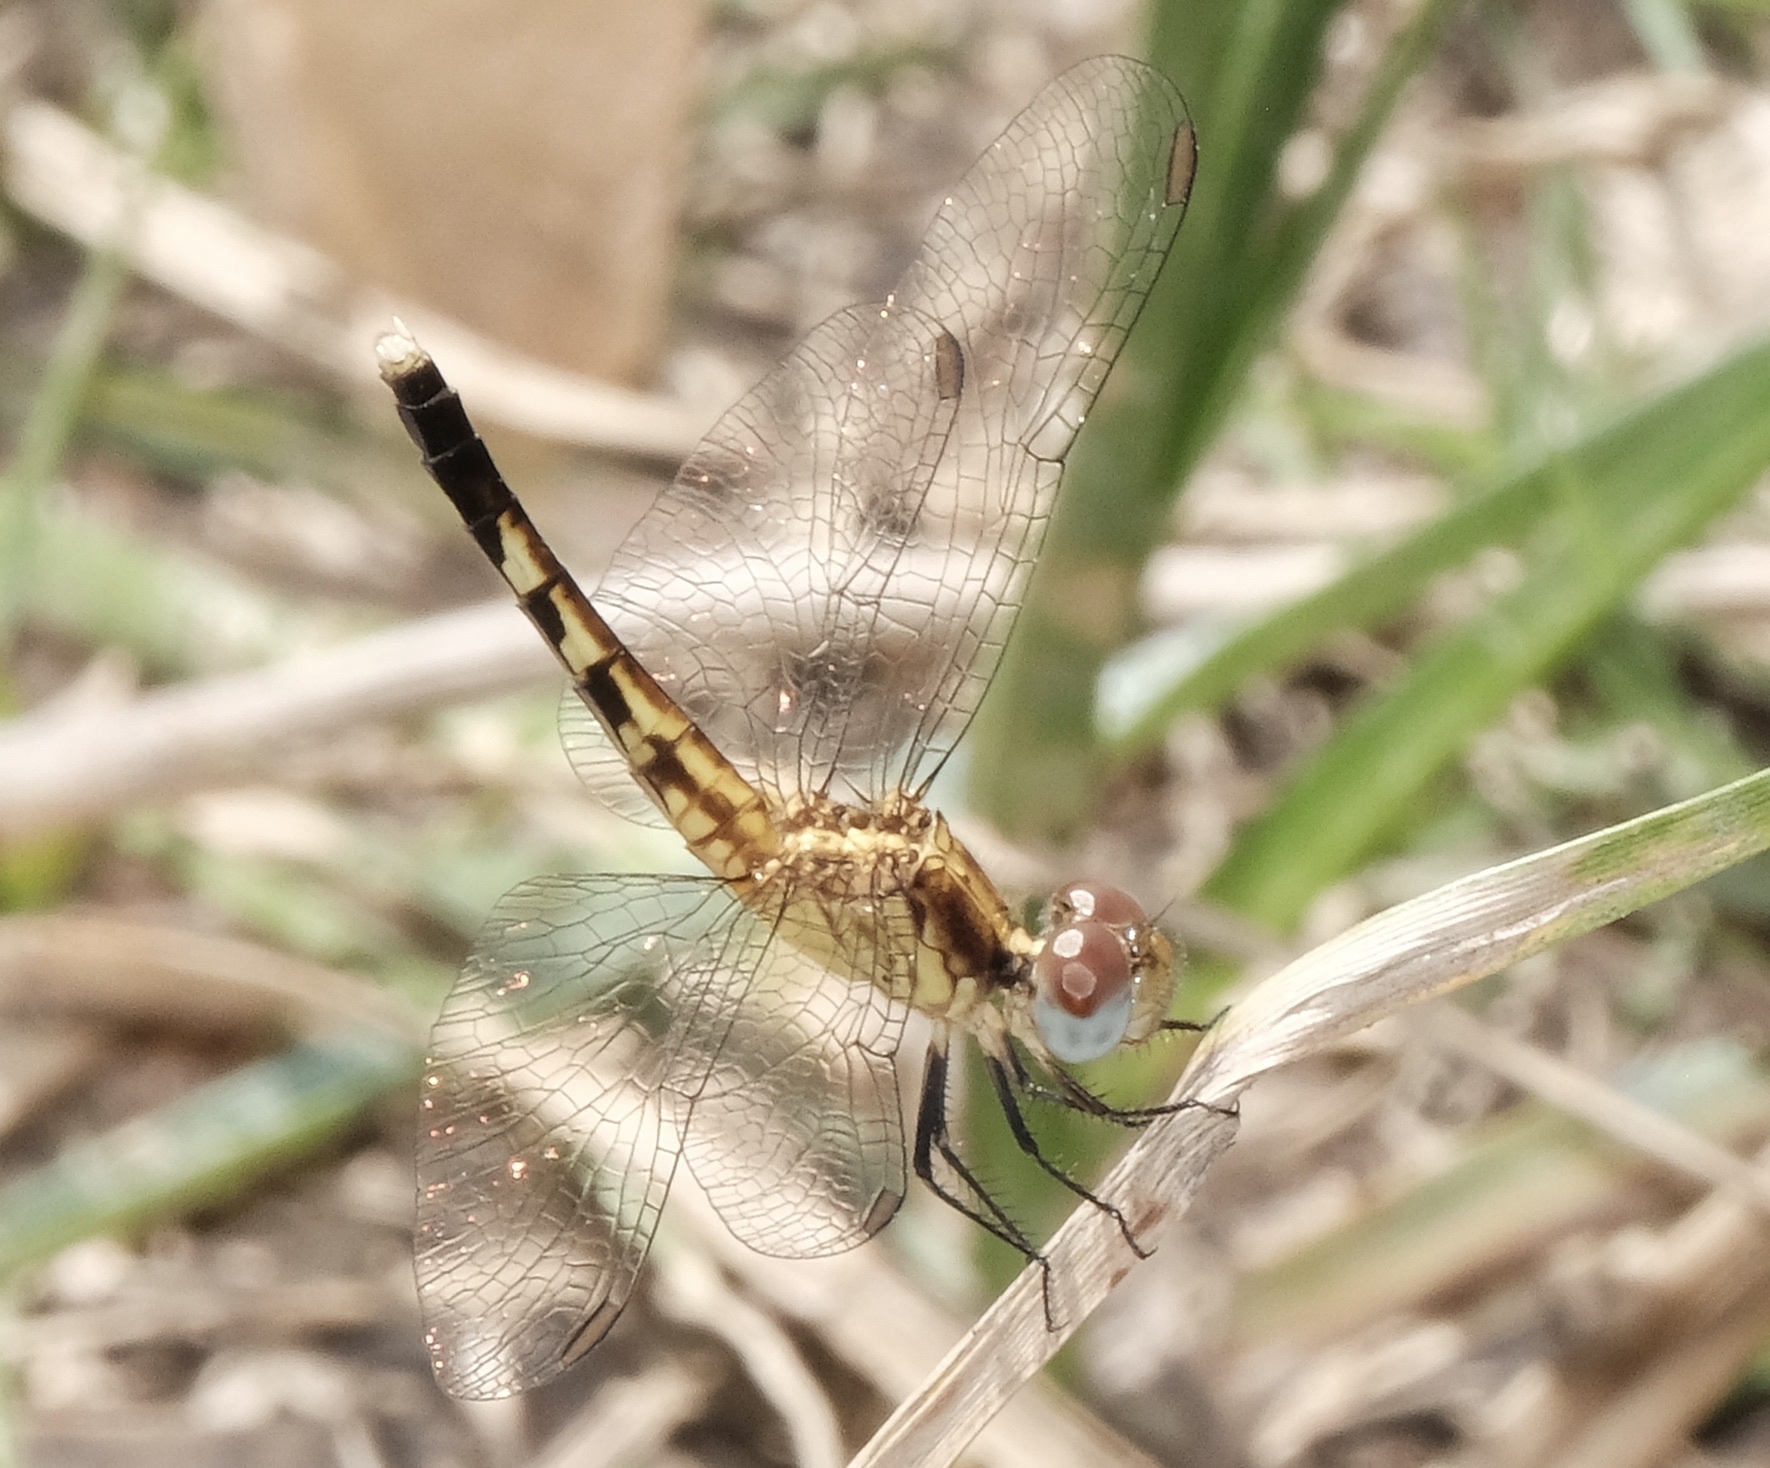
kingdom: Animalia
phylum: Arthropoda
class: Insecta
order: Odonata
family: Libellulidae
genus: Erythrodiplax
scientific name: Erythrodiplax minuscula
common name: Little blue dragonlet
